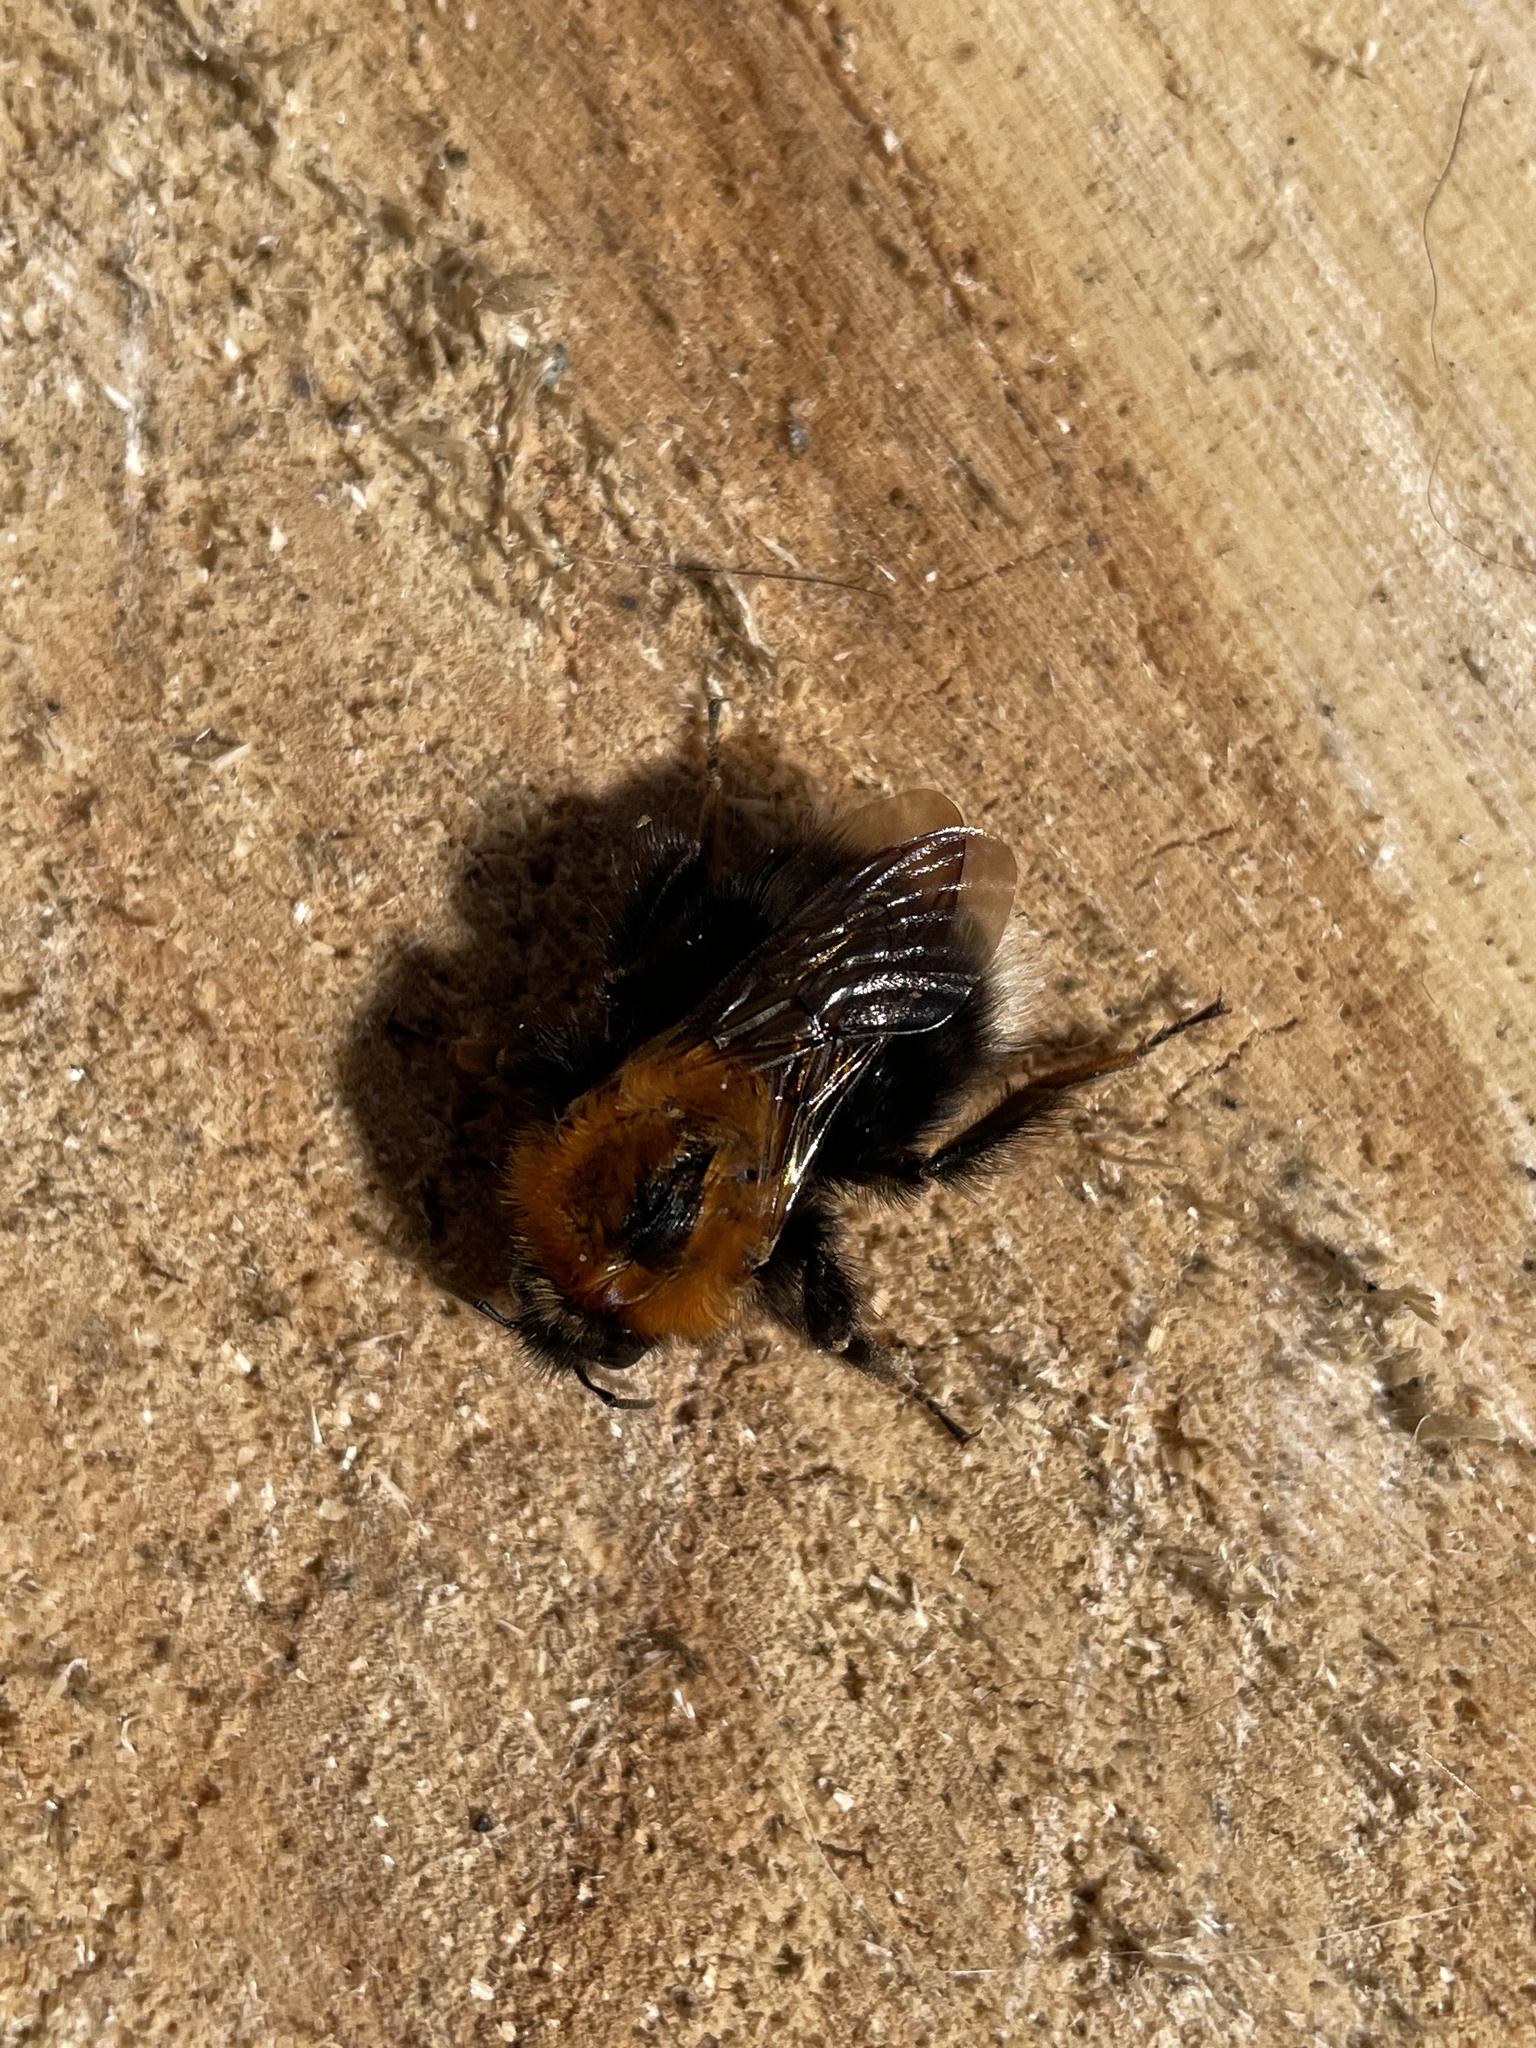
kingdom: Animalia
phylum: Arthropoda
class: Insecta
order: Hymenoptera
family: Apidae
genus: Bombus
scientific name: Bombus hypnorum
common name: New garden bumblebee
